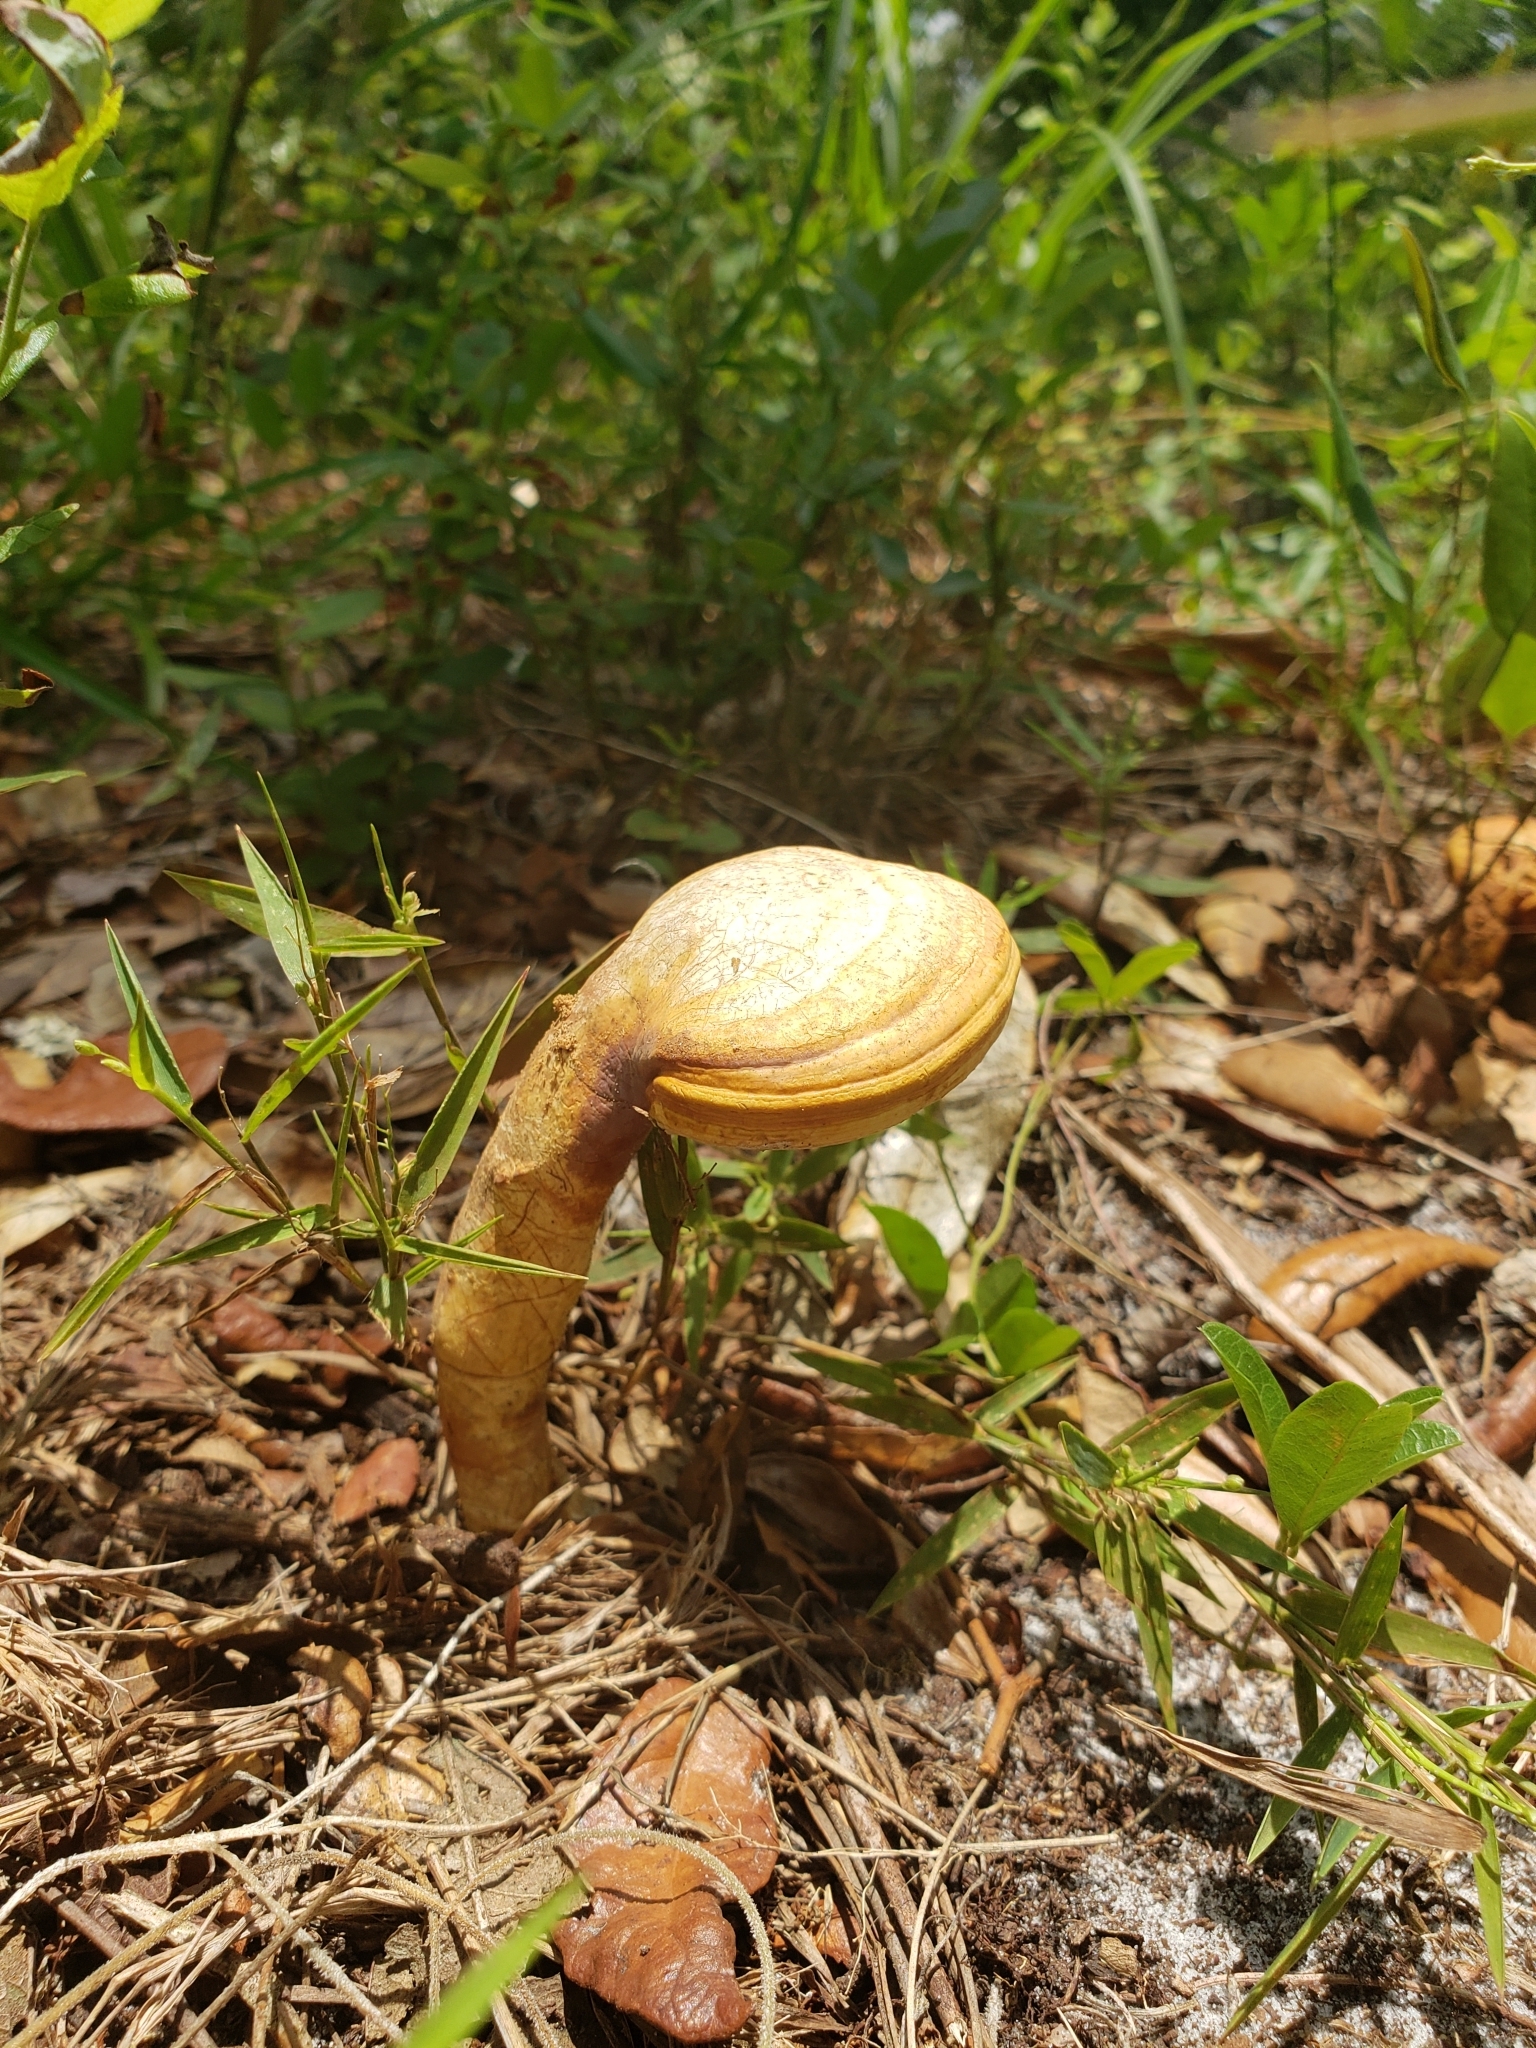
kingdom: Fungi
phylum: Basidiomycota
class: Agaricomycetes
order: Polyporales
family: Polyporaceae
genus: Ganoderma
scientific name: Ganoderma curtisii
